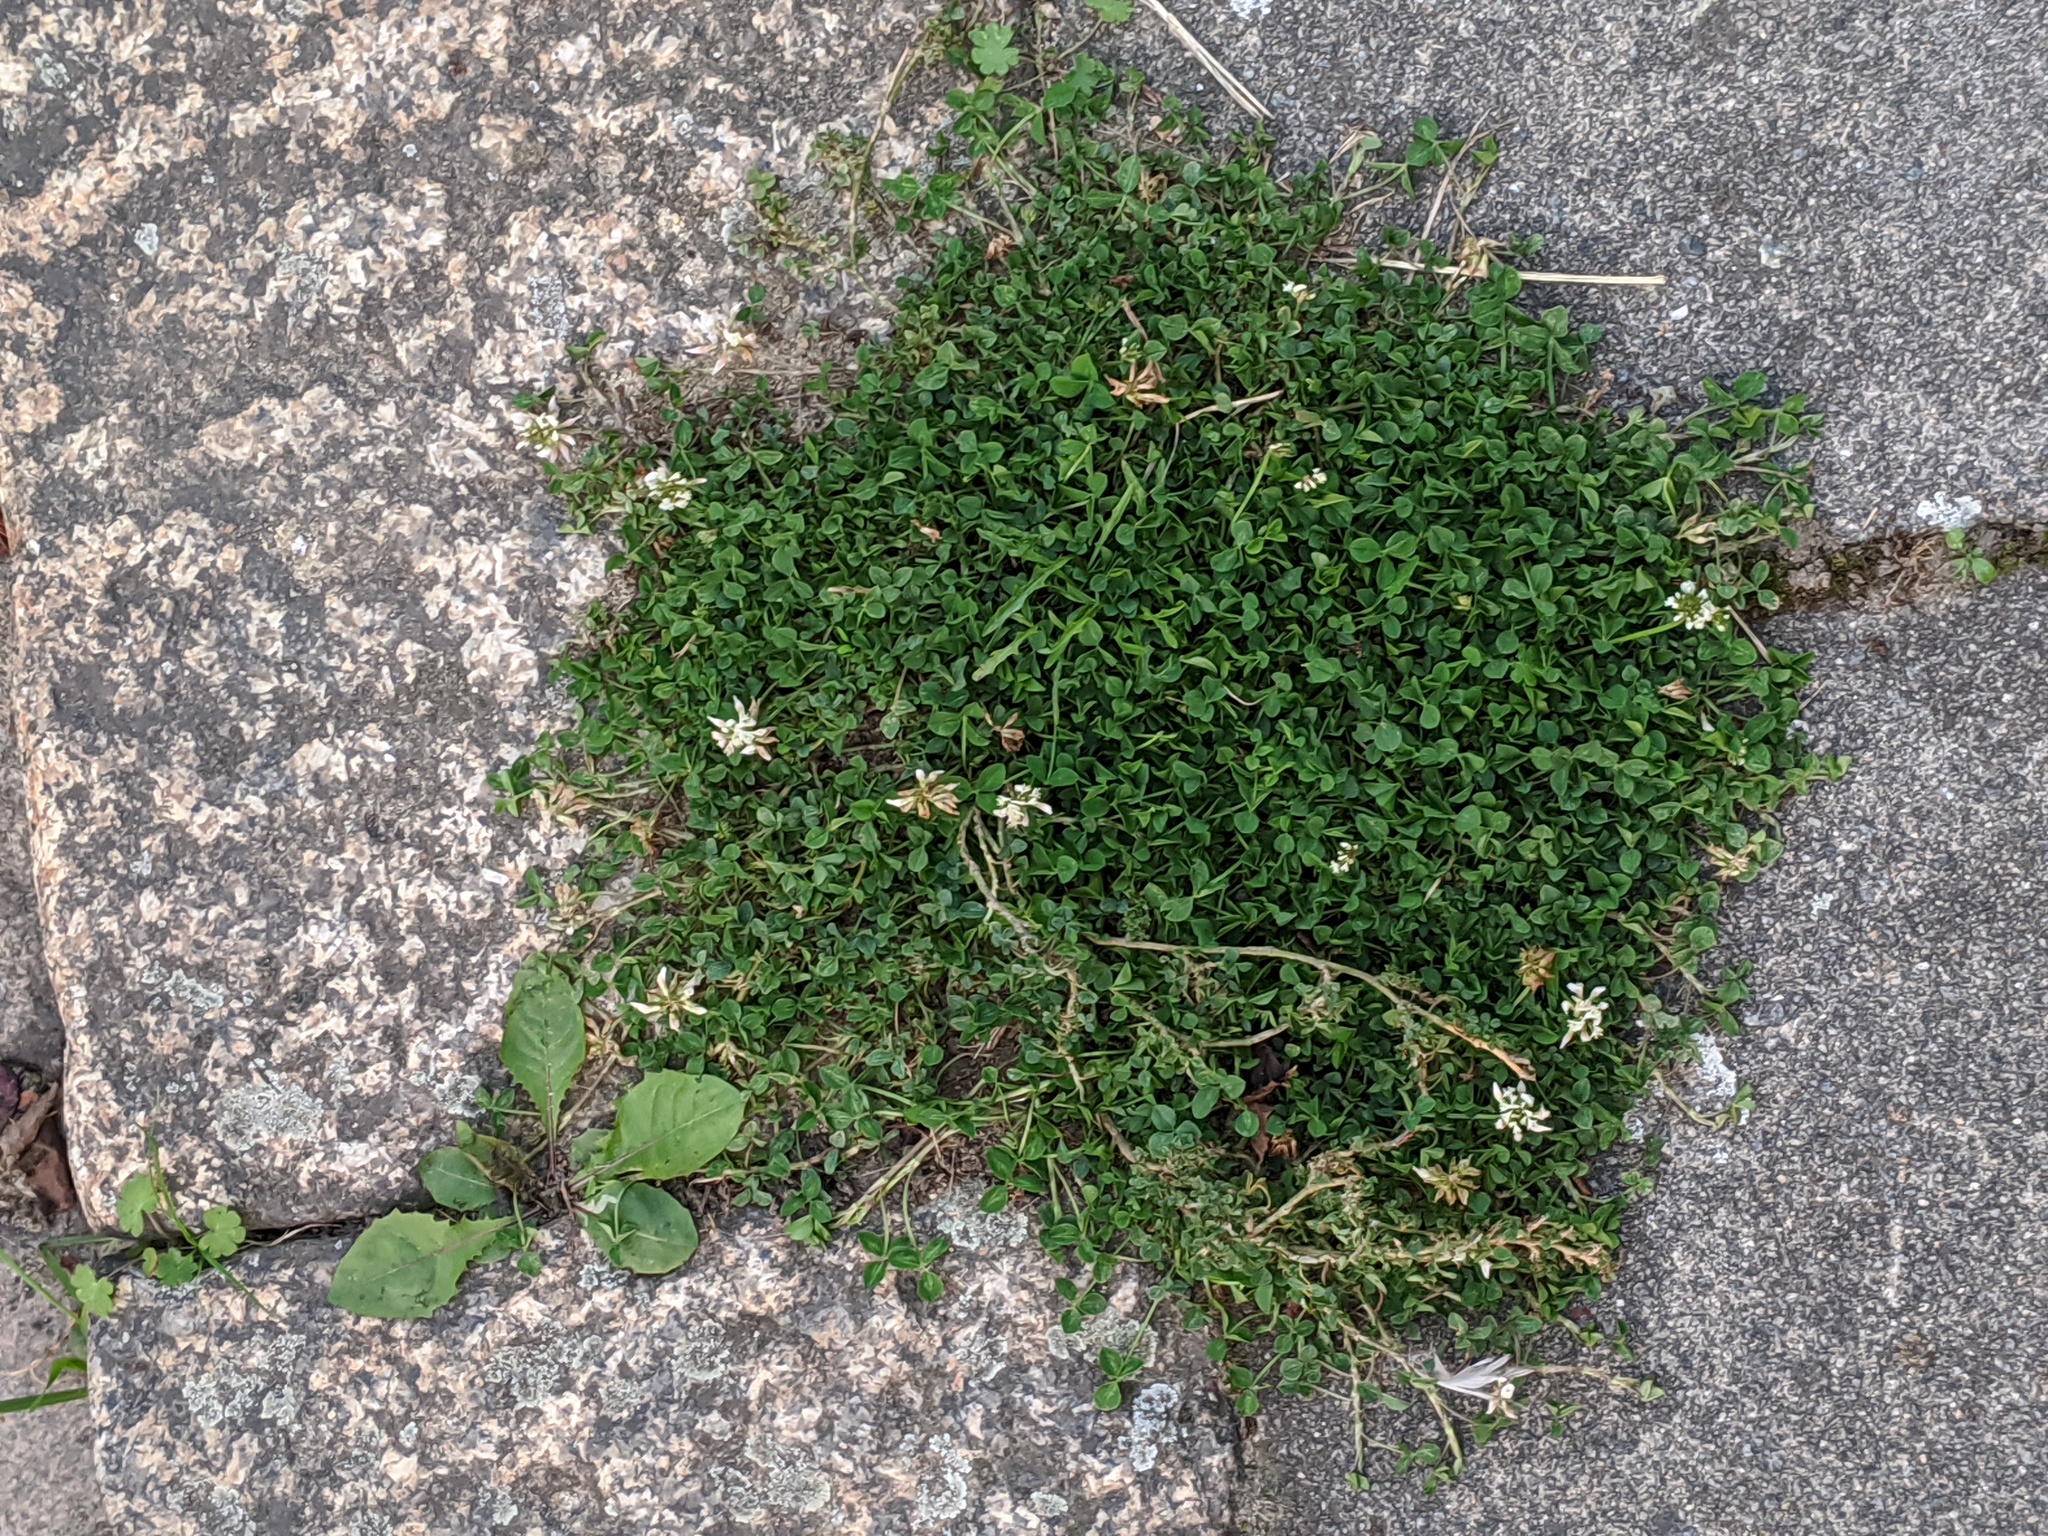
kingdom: Plantae
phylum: Tracheophyta
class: Magnoliopsida
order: Fabales
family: Fabaceae
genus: Trifolium
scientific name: Trifolium repens
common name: White clover
